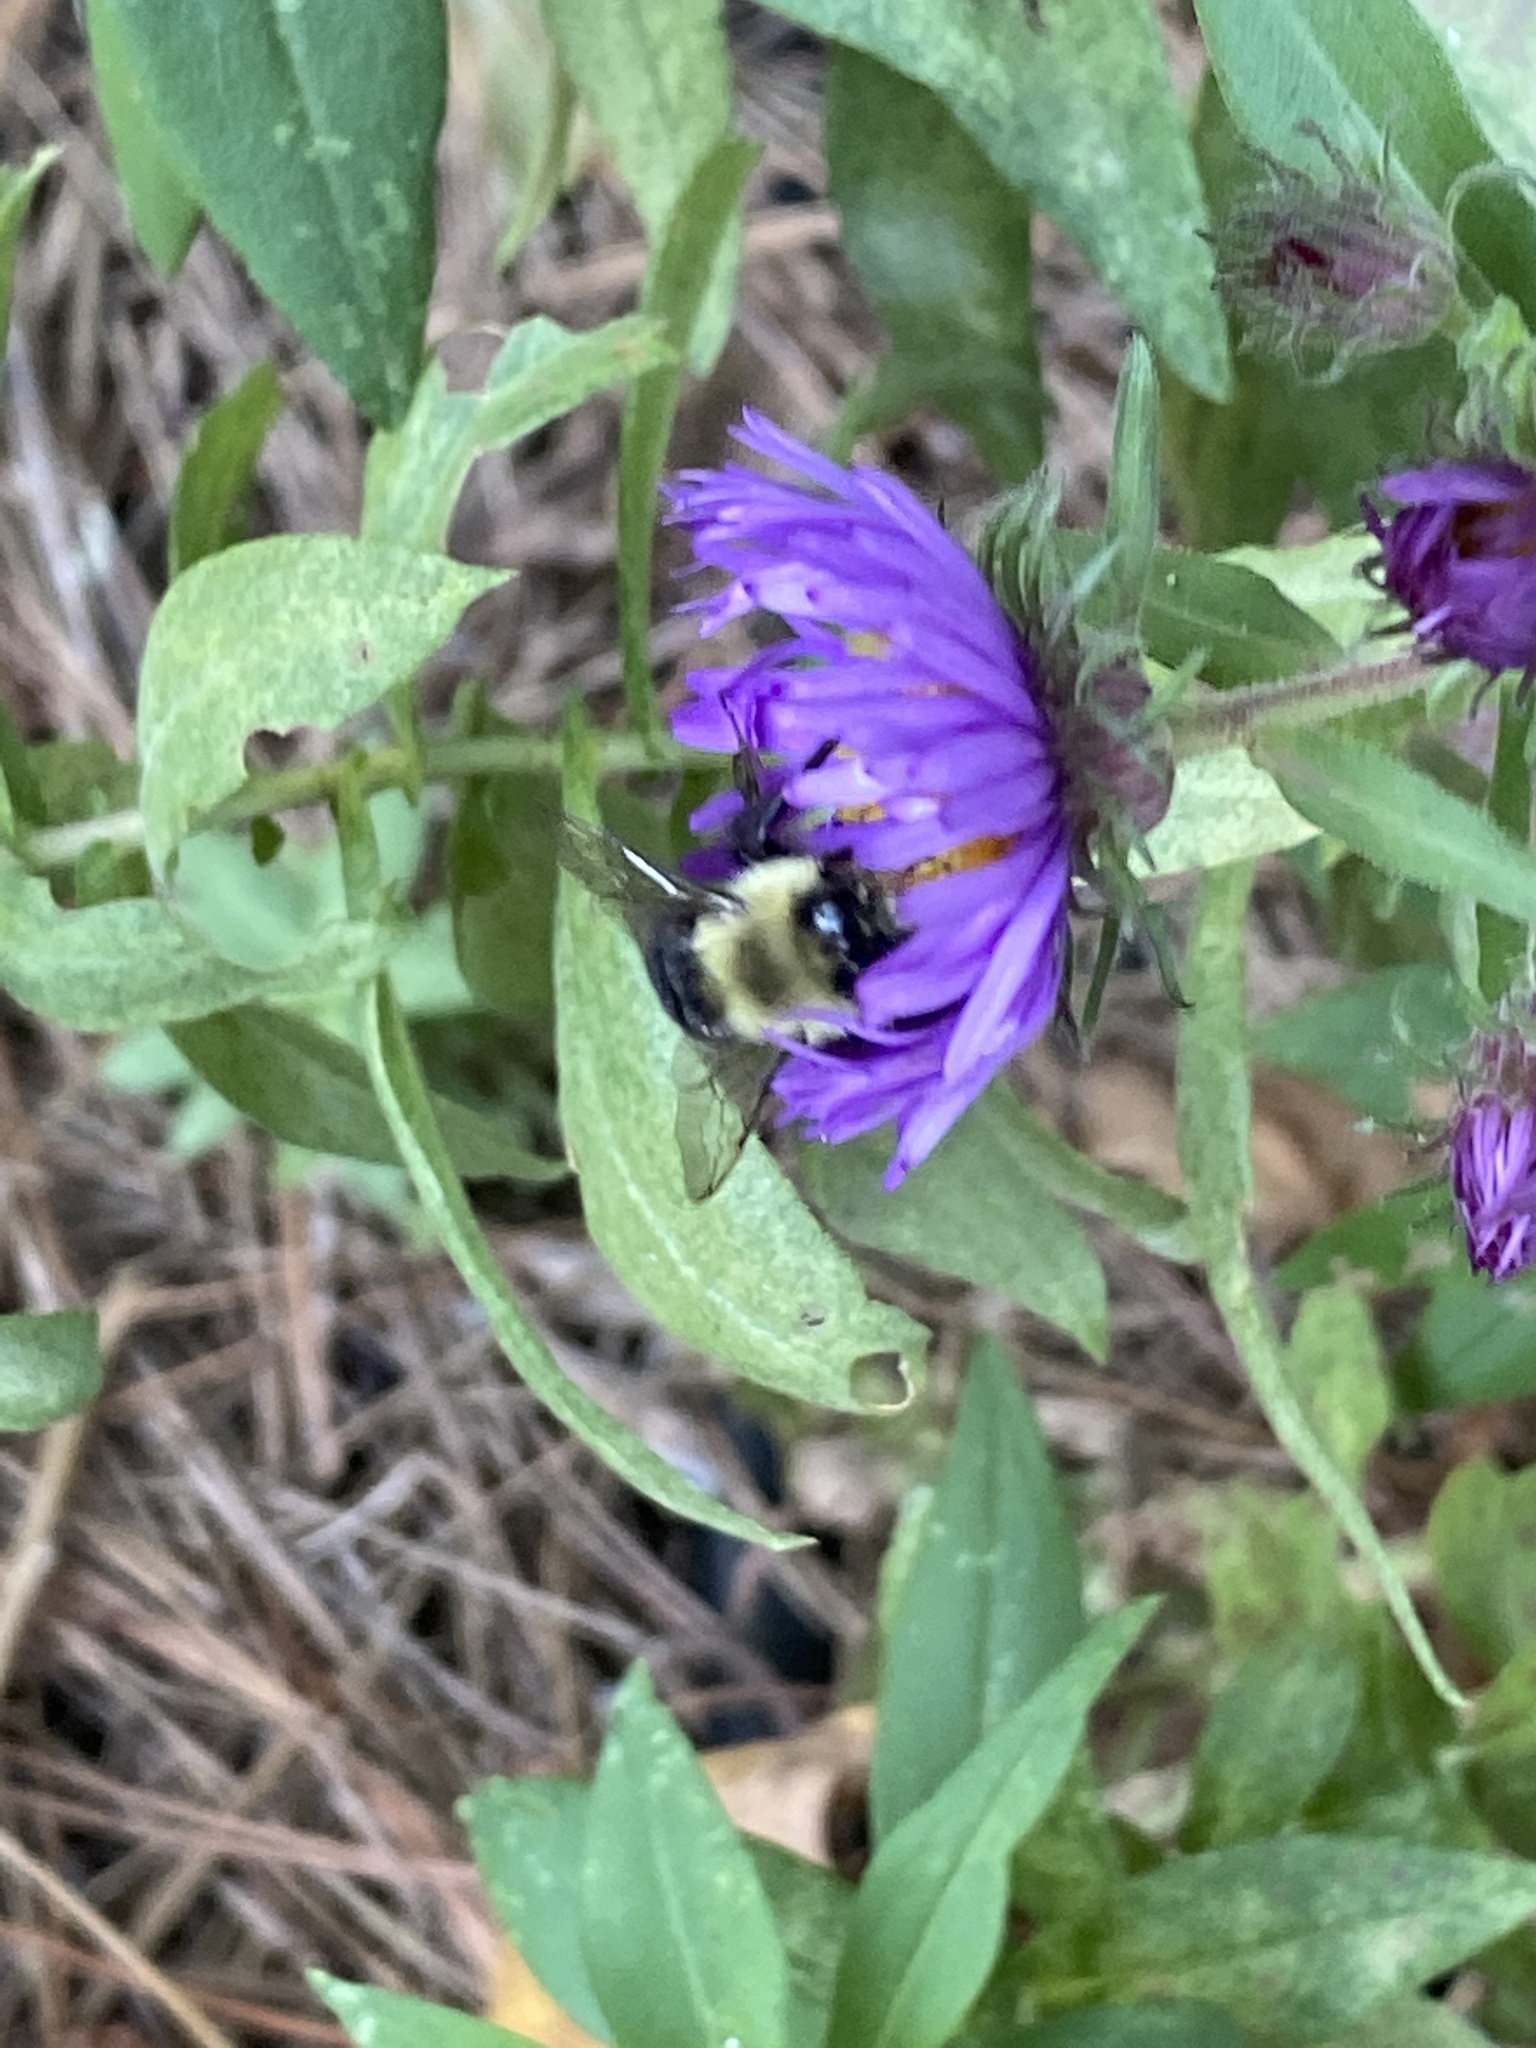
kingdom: Animalia
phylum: Arthropoda
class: Insecta
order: Hymenoptera
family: Apidae
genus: Bombus
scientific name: Bombus impatiens
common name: Common eastern bumble bee
